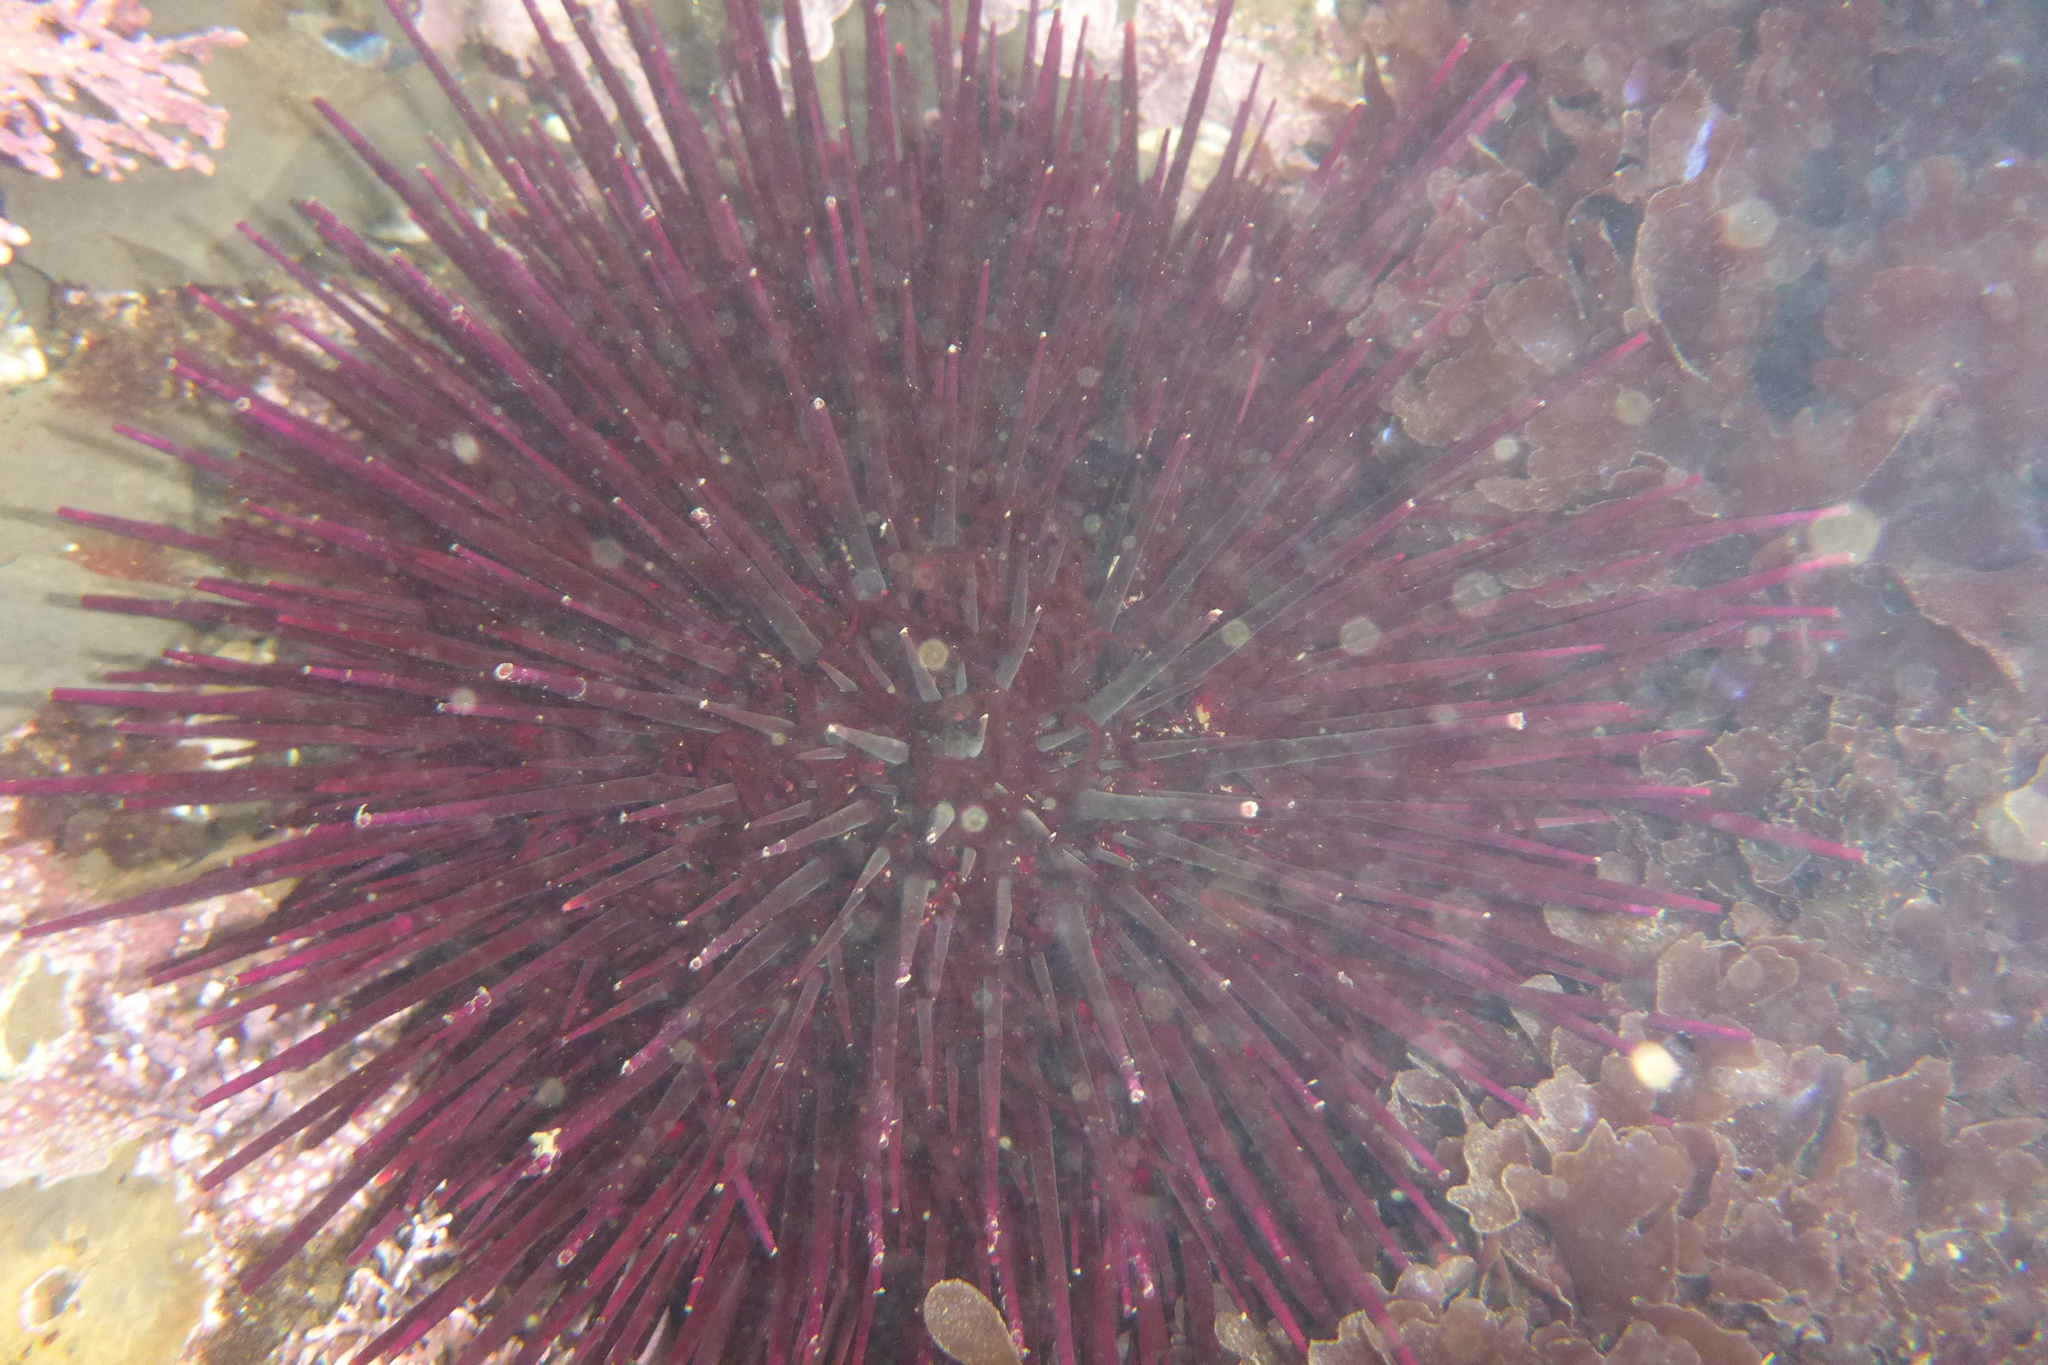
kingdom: Animalia
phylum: Echinodermata
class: Echinoidea
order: Camarodonta
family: Strongylocentrotidae
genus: Mesocentrotus
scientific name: Mesocentrotus franciscanus
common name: Red sea urchin
